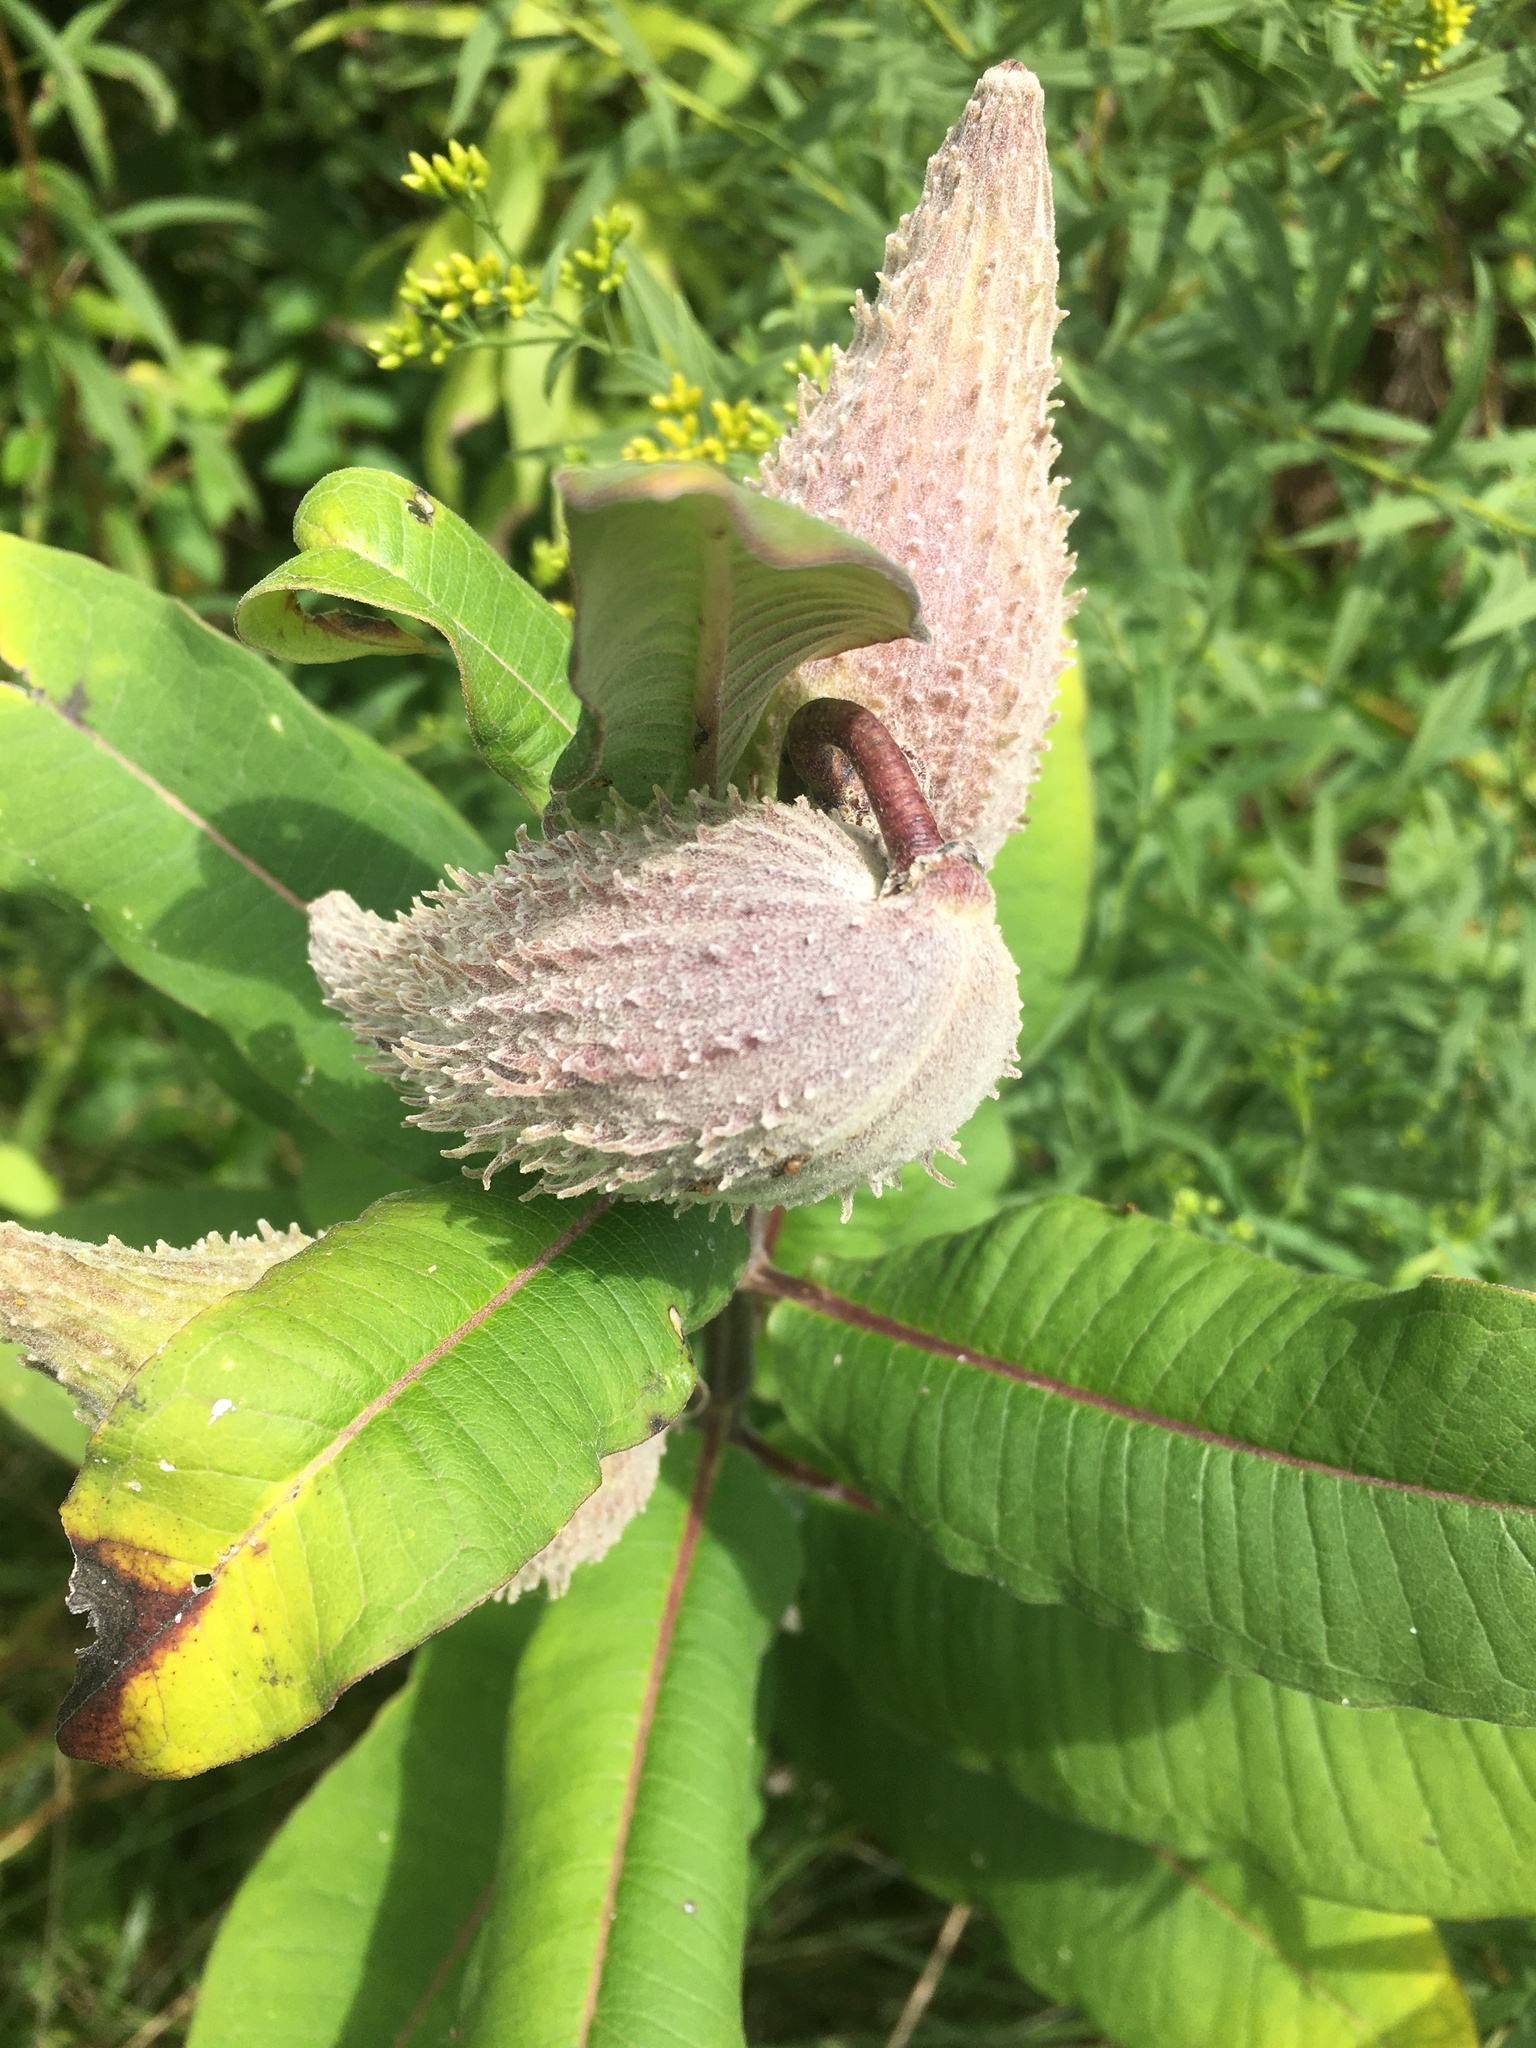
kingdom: Plantae
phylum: Tracheophyta
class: Magnoliopsida
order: Gentianales
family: Apocynaceae
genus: Asclepias
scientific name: Asclepias syriaca
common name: Common milkweed
